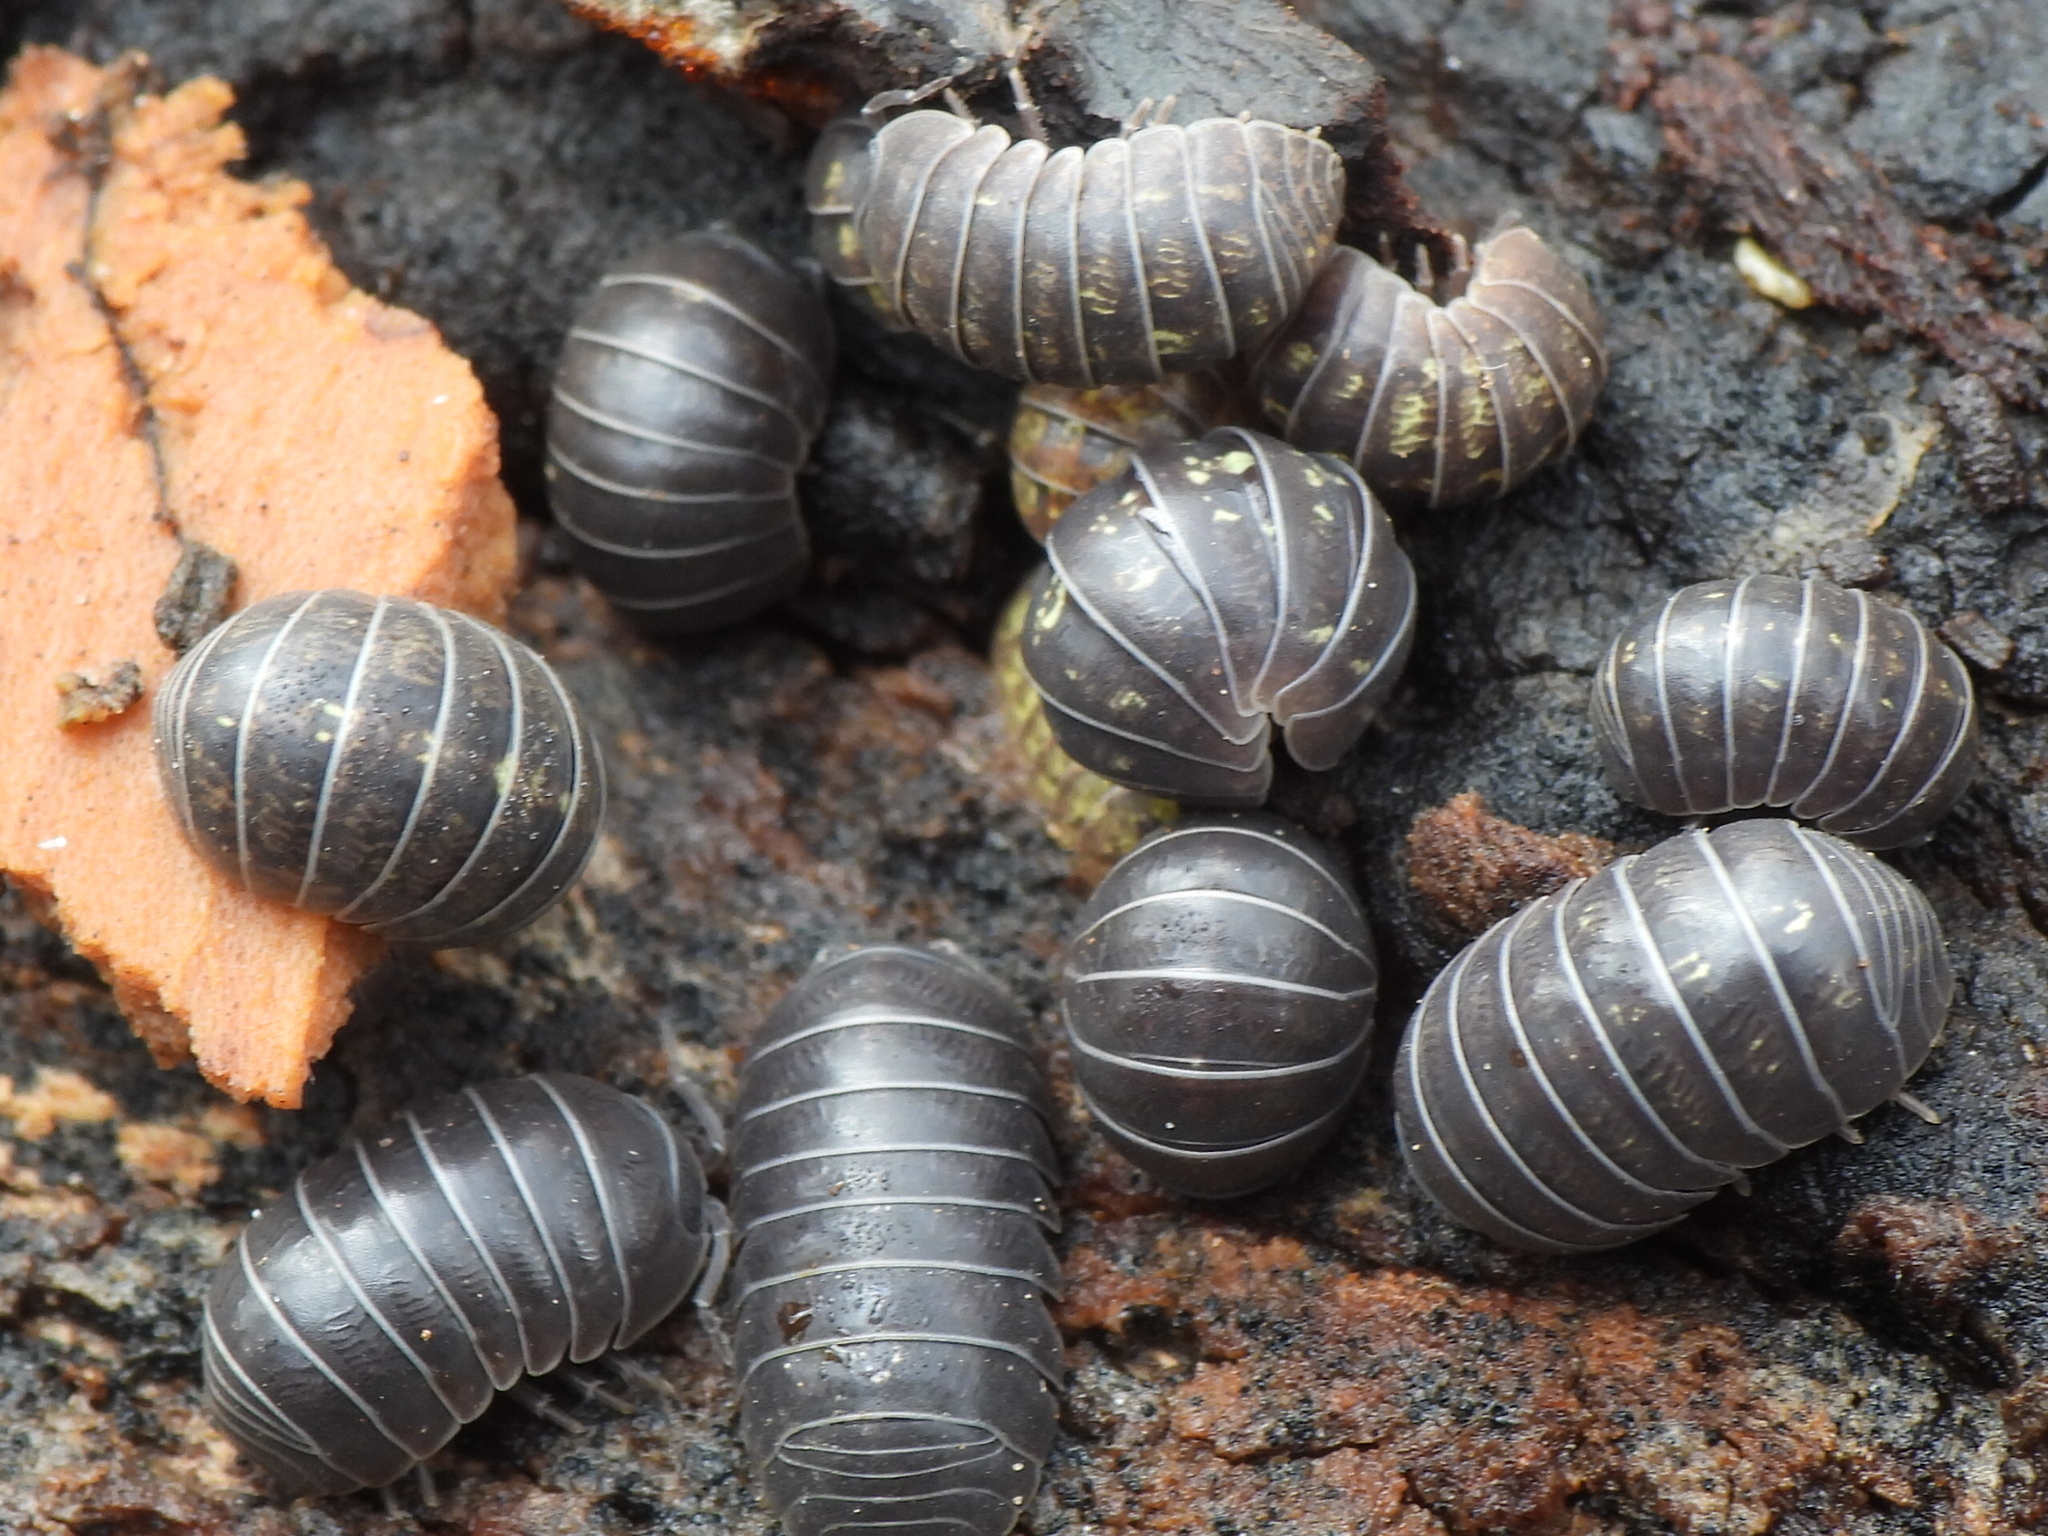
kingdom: Animalia
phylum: Arthropoda
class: Malacostraca
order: Isopoda
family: Armadillidiidae
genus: Armadillidium
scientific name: Armadillidium vulgare
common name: Common pill woodlouse
